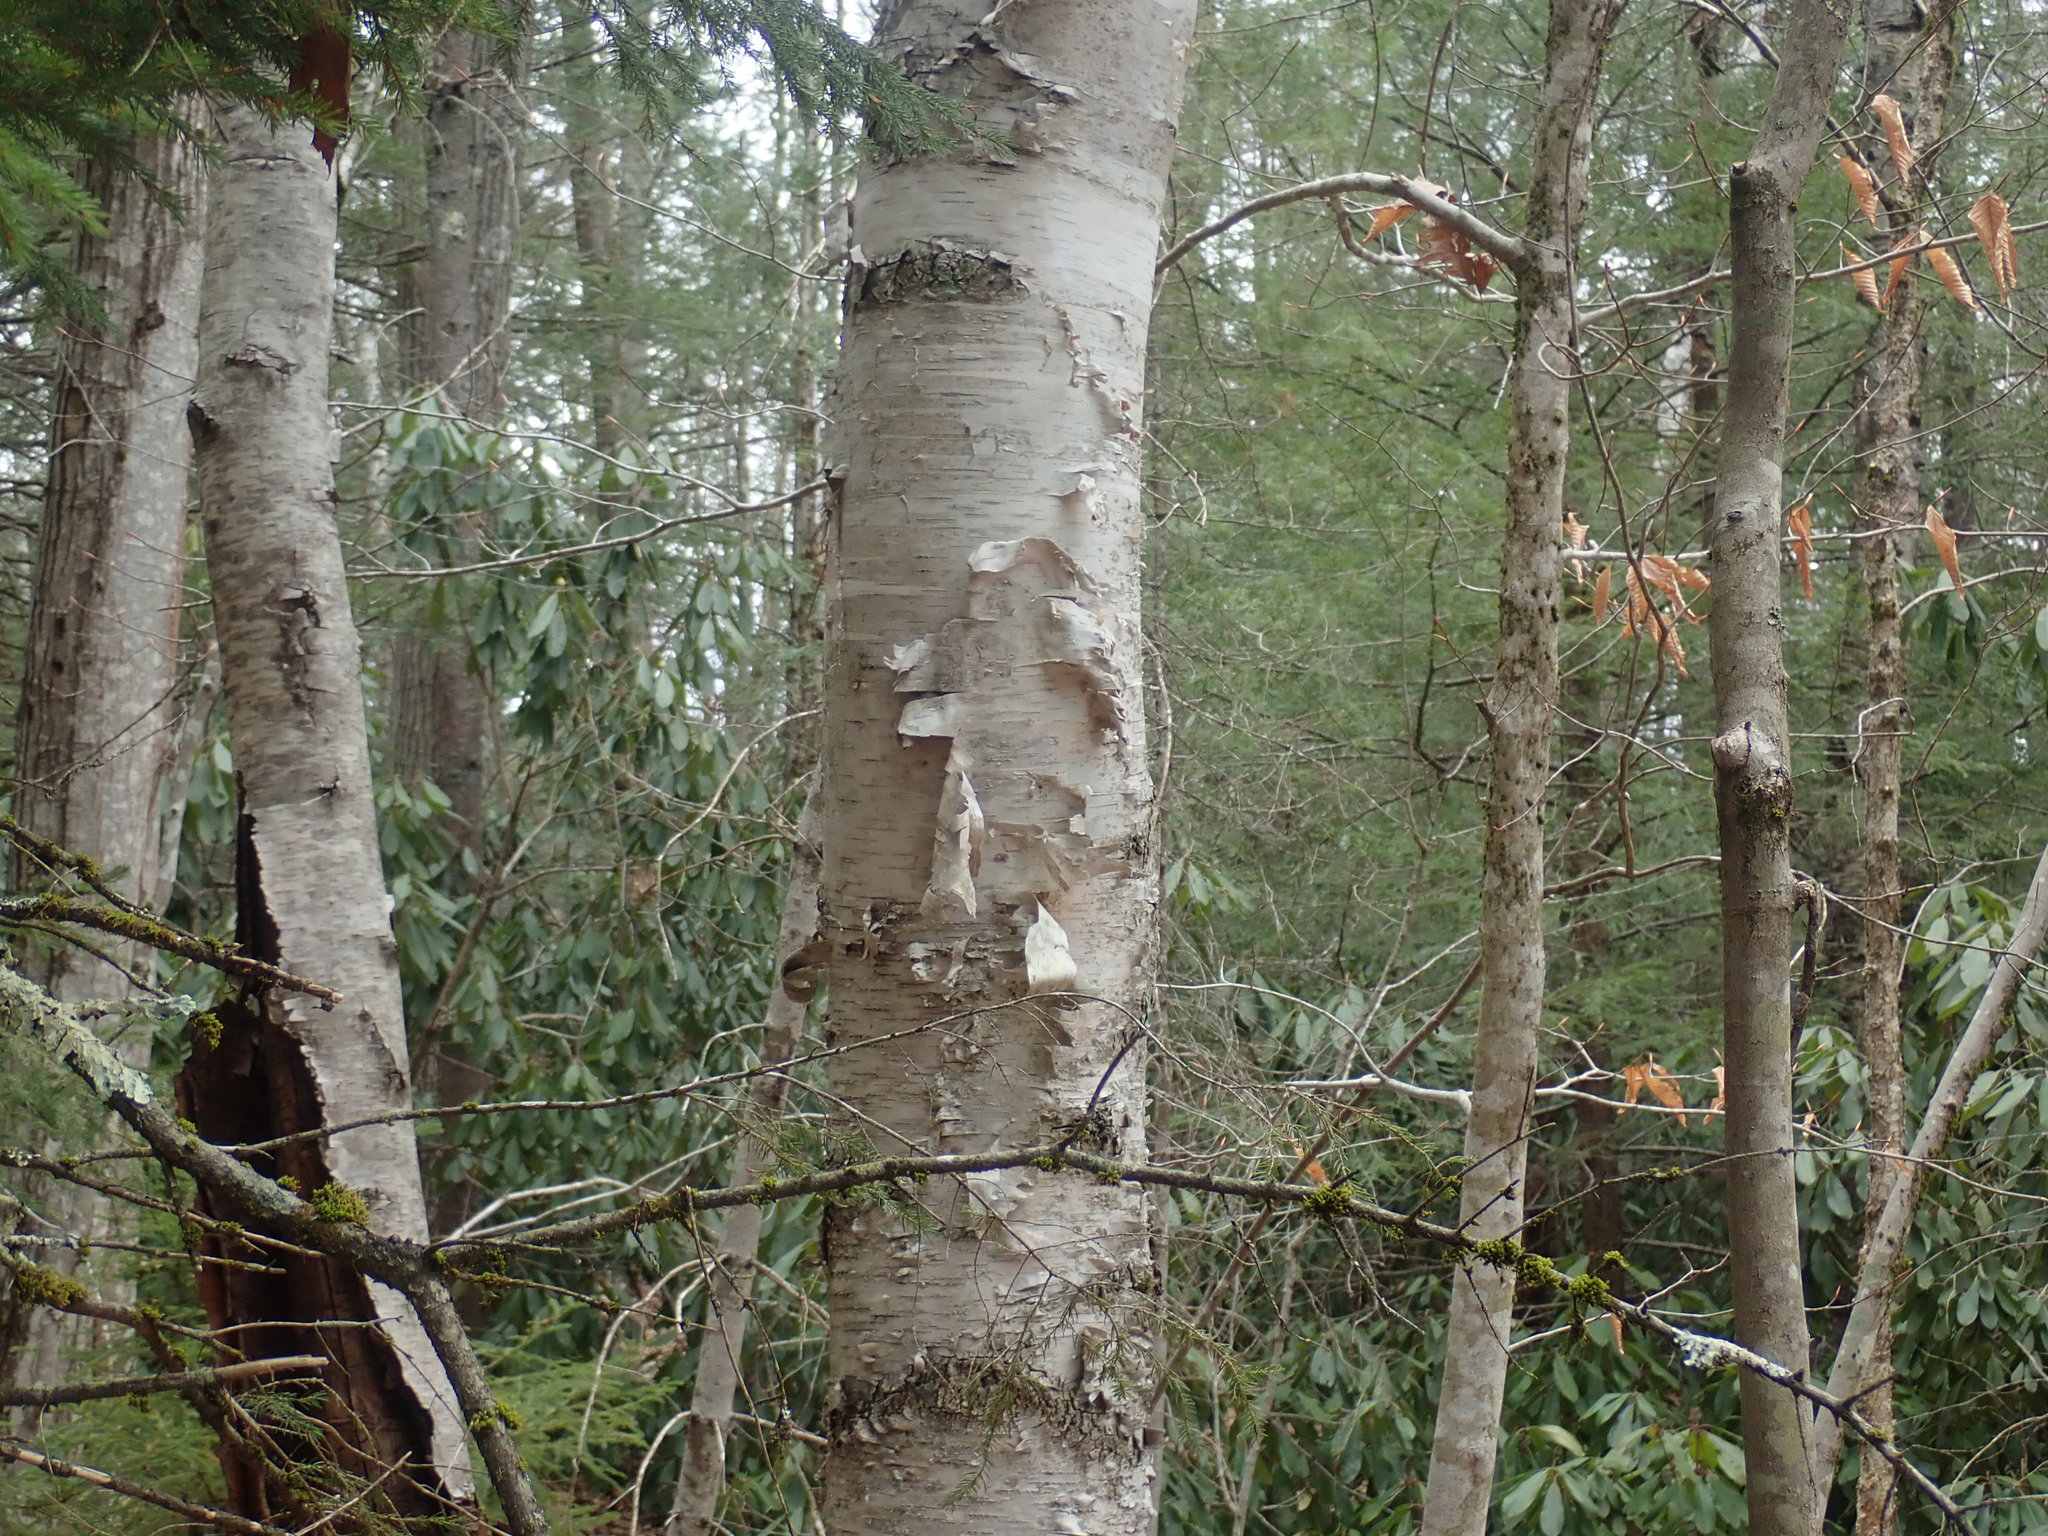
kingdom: Plantae
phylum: Tracheophyta
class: Magnoliopsida
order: Fagales
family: Betulaceae
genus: Betula
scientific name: Betula papyrifera
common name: Paper birch
